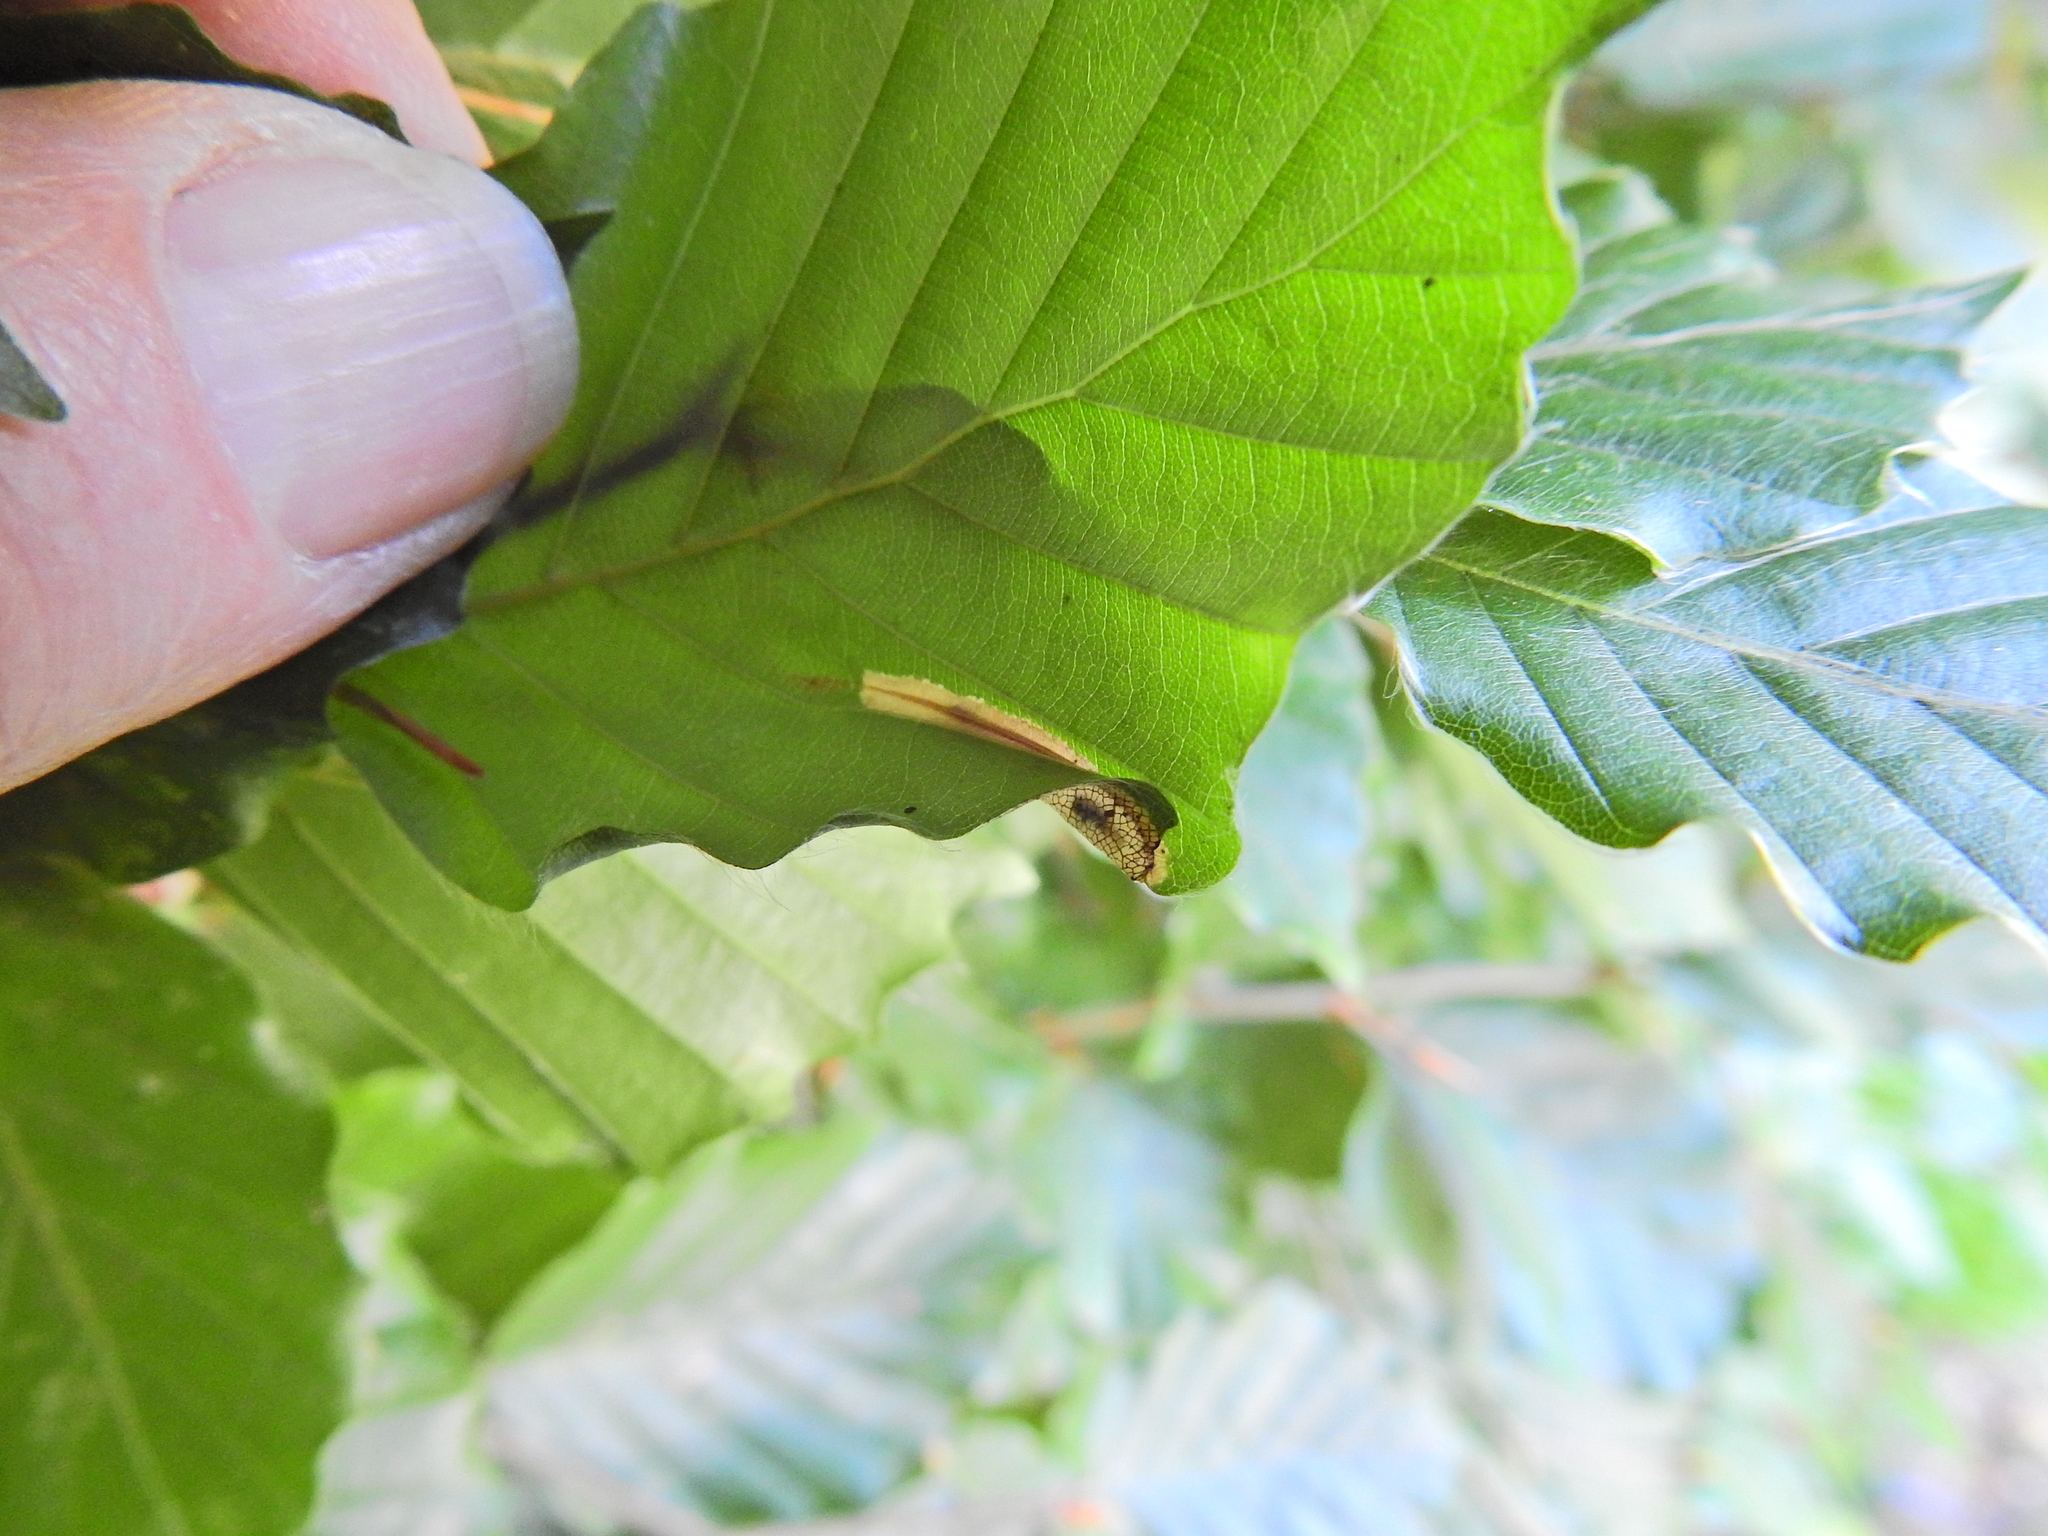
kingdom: Animalia
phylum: Arthropoda
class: Insecta
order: Lepidoptera
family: Gracillariidae
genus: Phyllonorycter
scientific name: Phyllonorycter maestingella
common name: Beech midget
